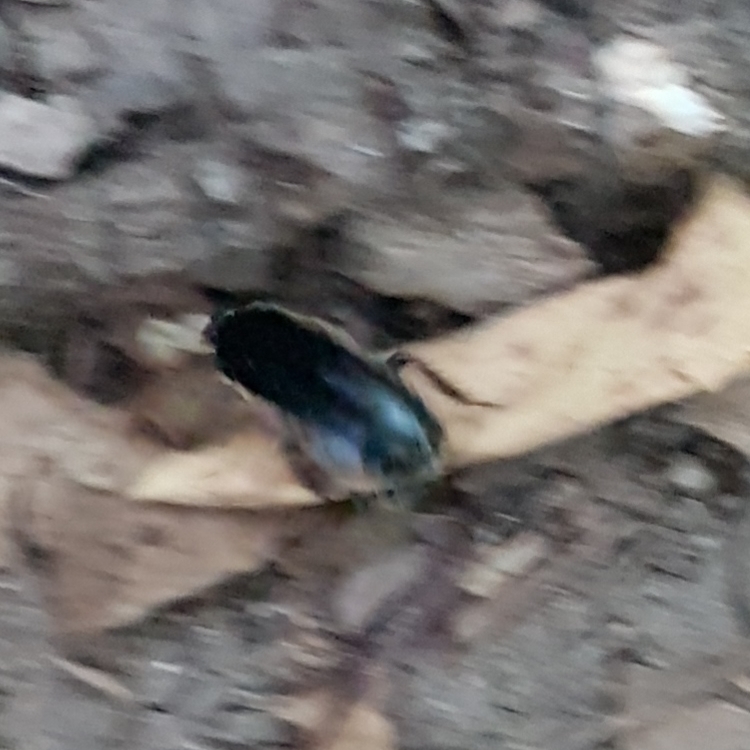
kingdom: Animalia
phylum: Arthropoda
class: Insecta
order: Blattodea
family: Ectobiidae
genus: Loboptera
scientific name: Loboptera decipiens
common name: Lobe-winged cockroach
